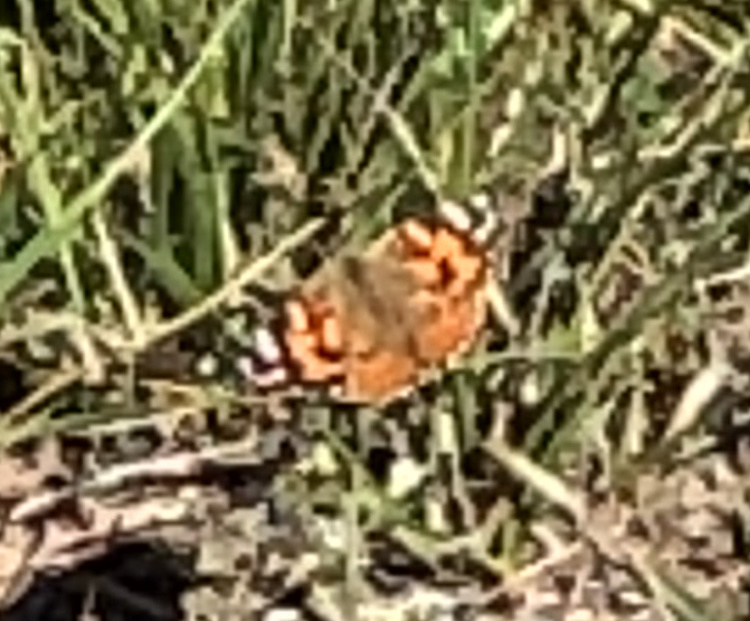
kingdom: Animalia
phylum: Arthropoda
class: Insecta
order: Lepidoptera
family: Nymphalidae
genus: Vanessa
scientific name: Vanessa cardui
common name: Painted lady
